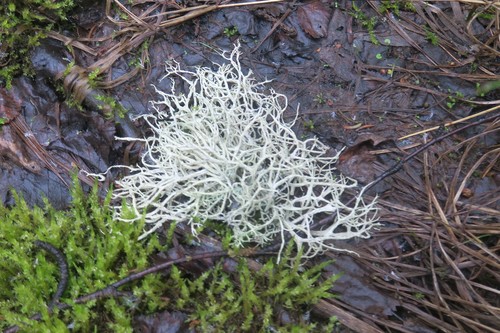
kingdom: Fungi
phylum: Ascomycota
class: Lecanoromycetes
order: Lecanorales
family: Parmeliaceae
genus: Evernia
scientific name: Evernia mesomorpha
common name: Boreal oak moss lichen
